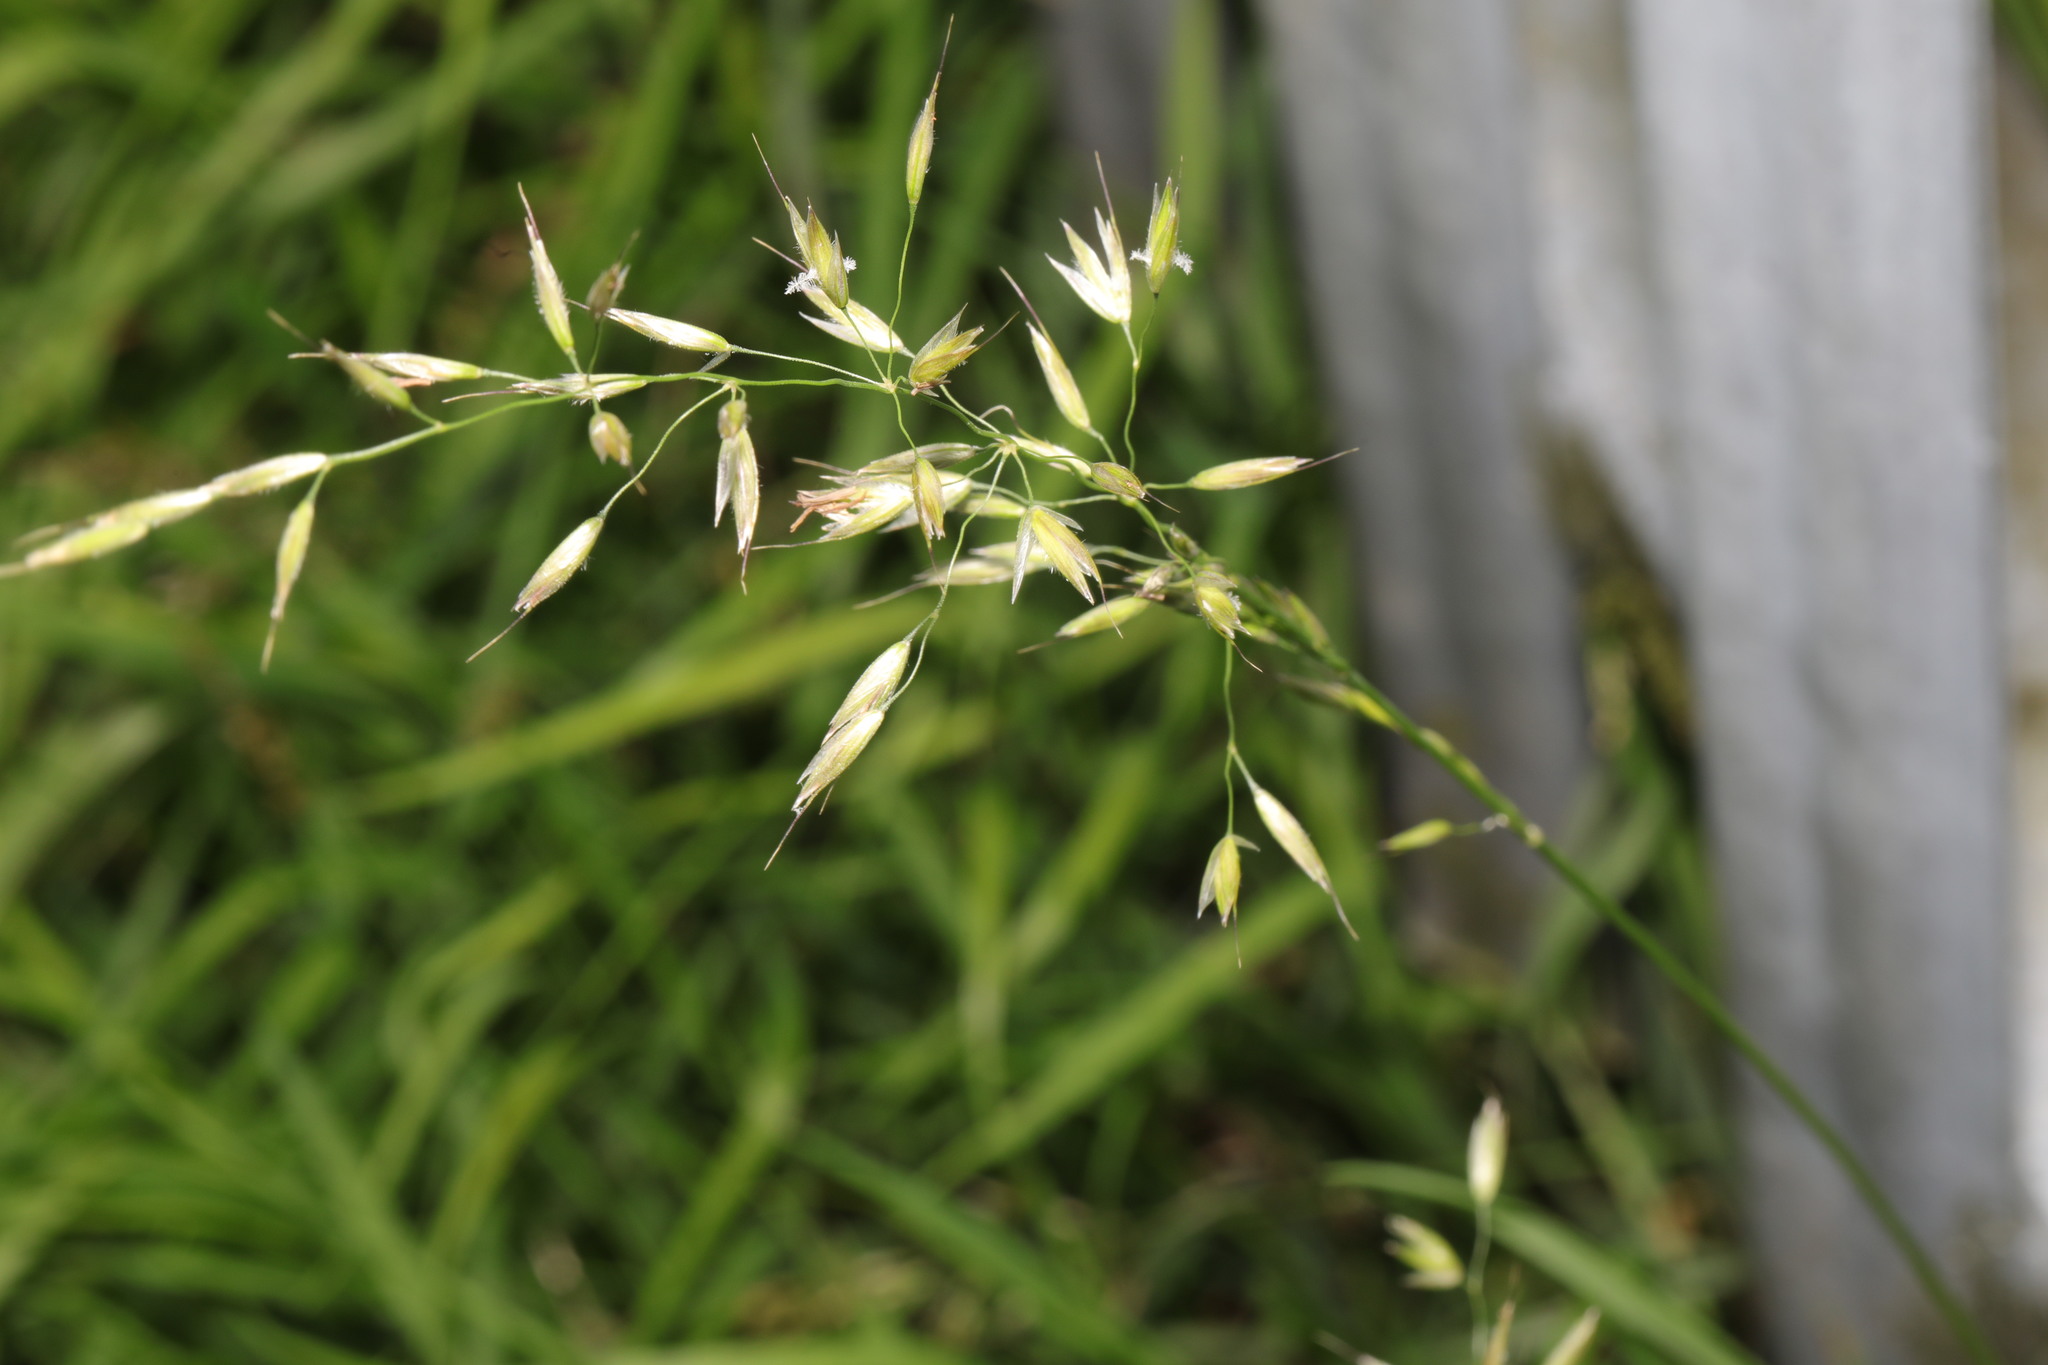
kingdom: Plantae
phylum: Tracheophyta
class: Liliopsida
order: Poales
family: Poaceae
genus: Arrhenatherum
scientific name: Arrhenatherum elatius
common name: Tall oatgrass
